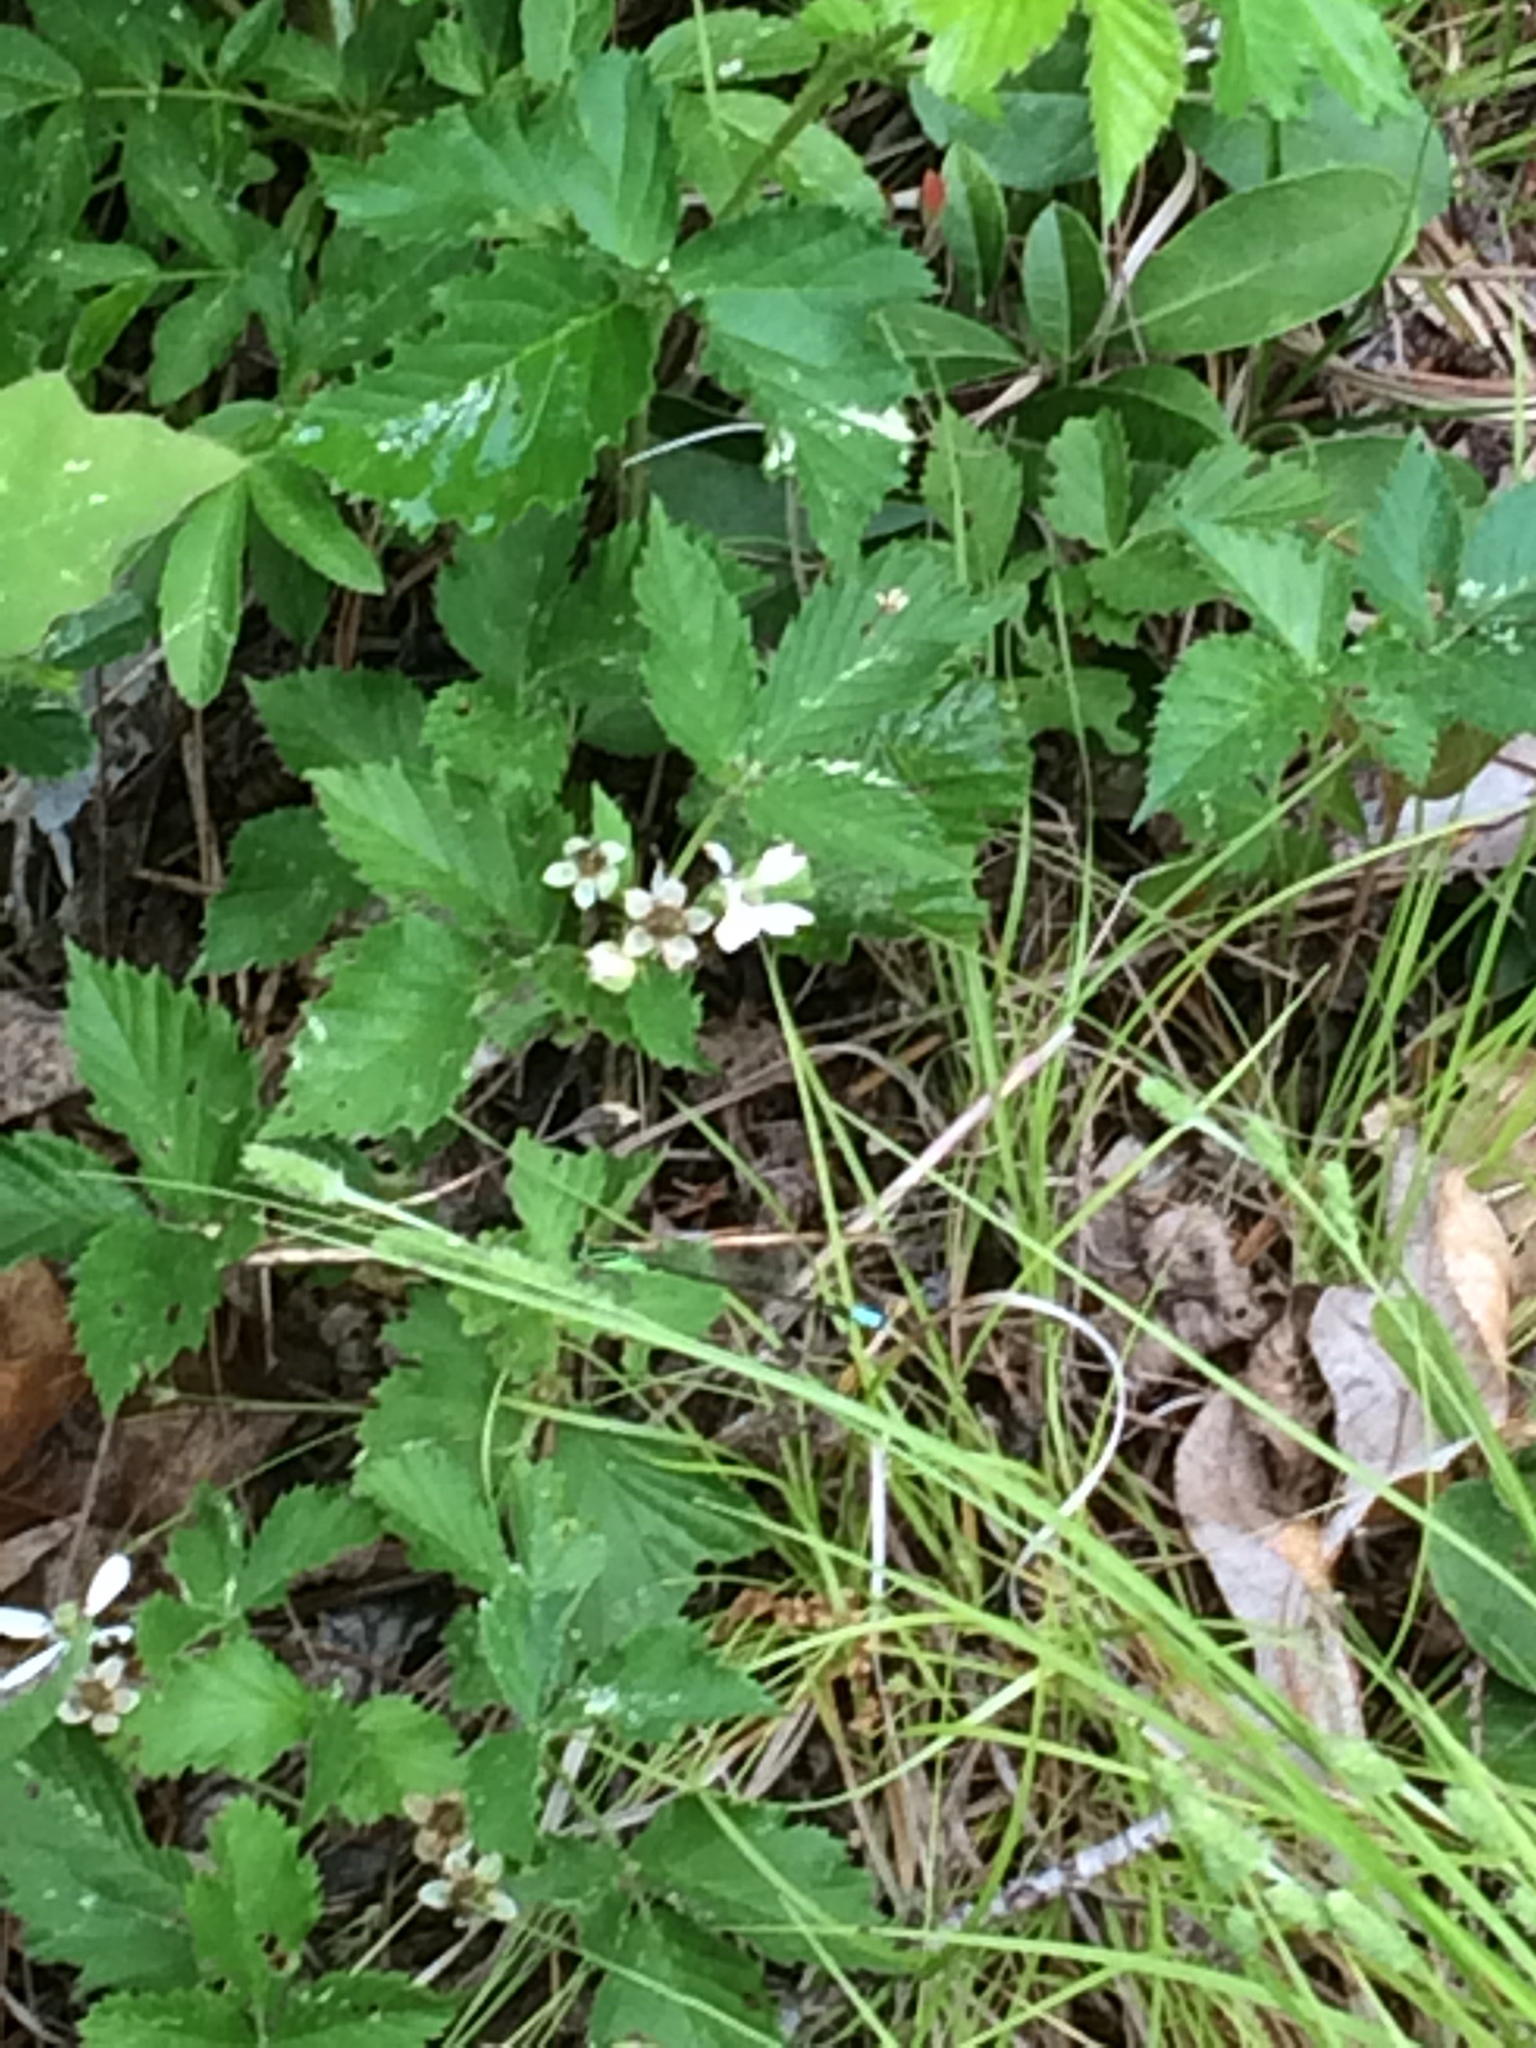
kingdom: Animalia
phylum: Arthropoda
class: Insecta
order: Odonata
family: Coenagrionidae
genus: Ischnura
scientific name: Ischnura verticalis
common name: Eastern forktail
